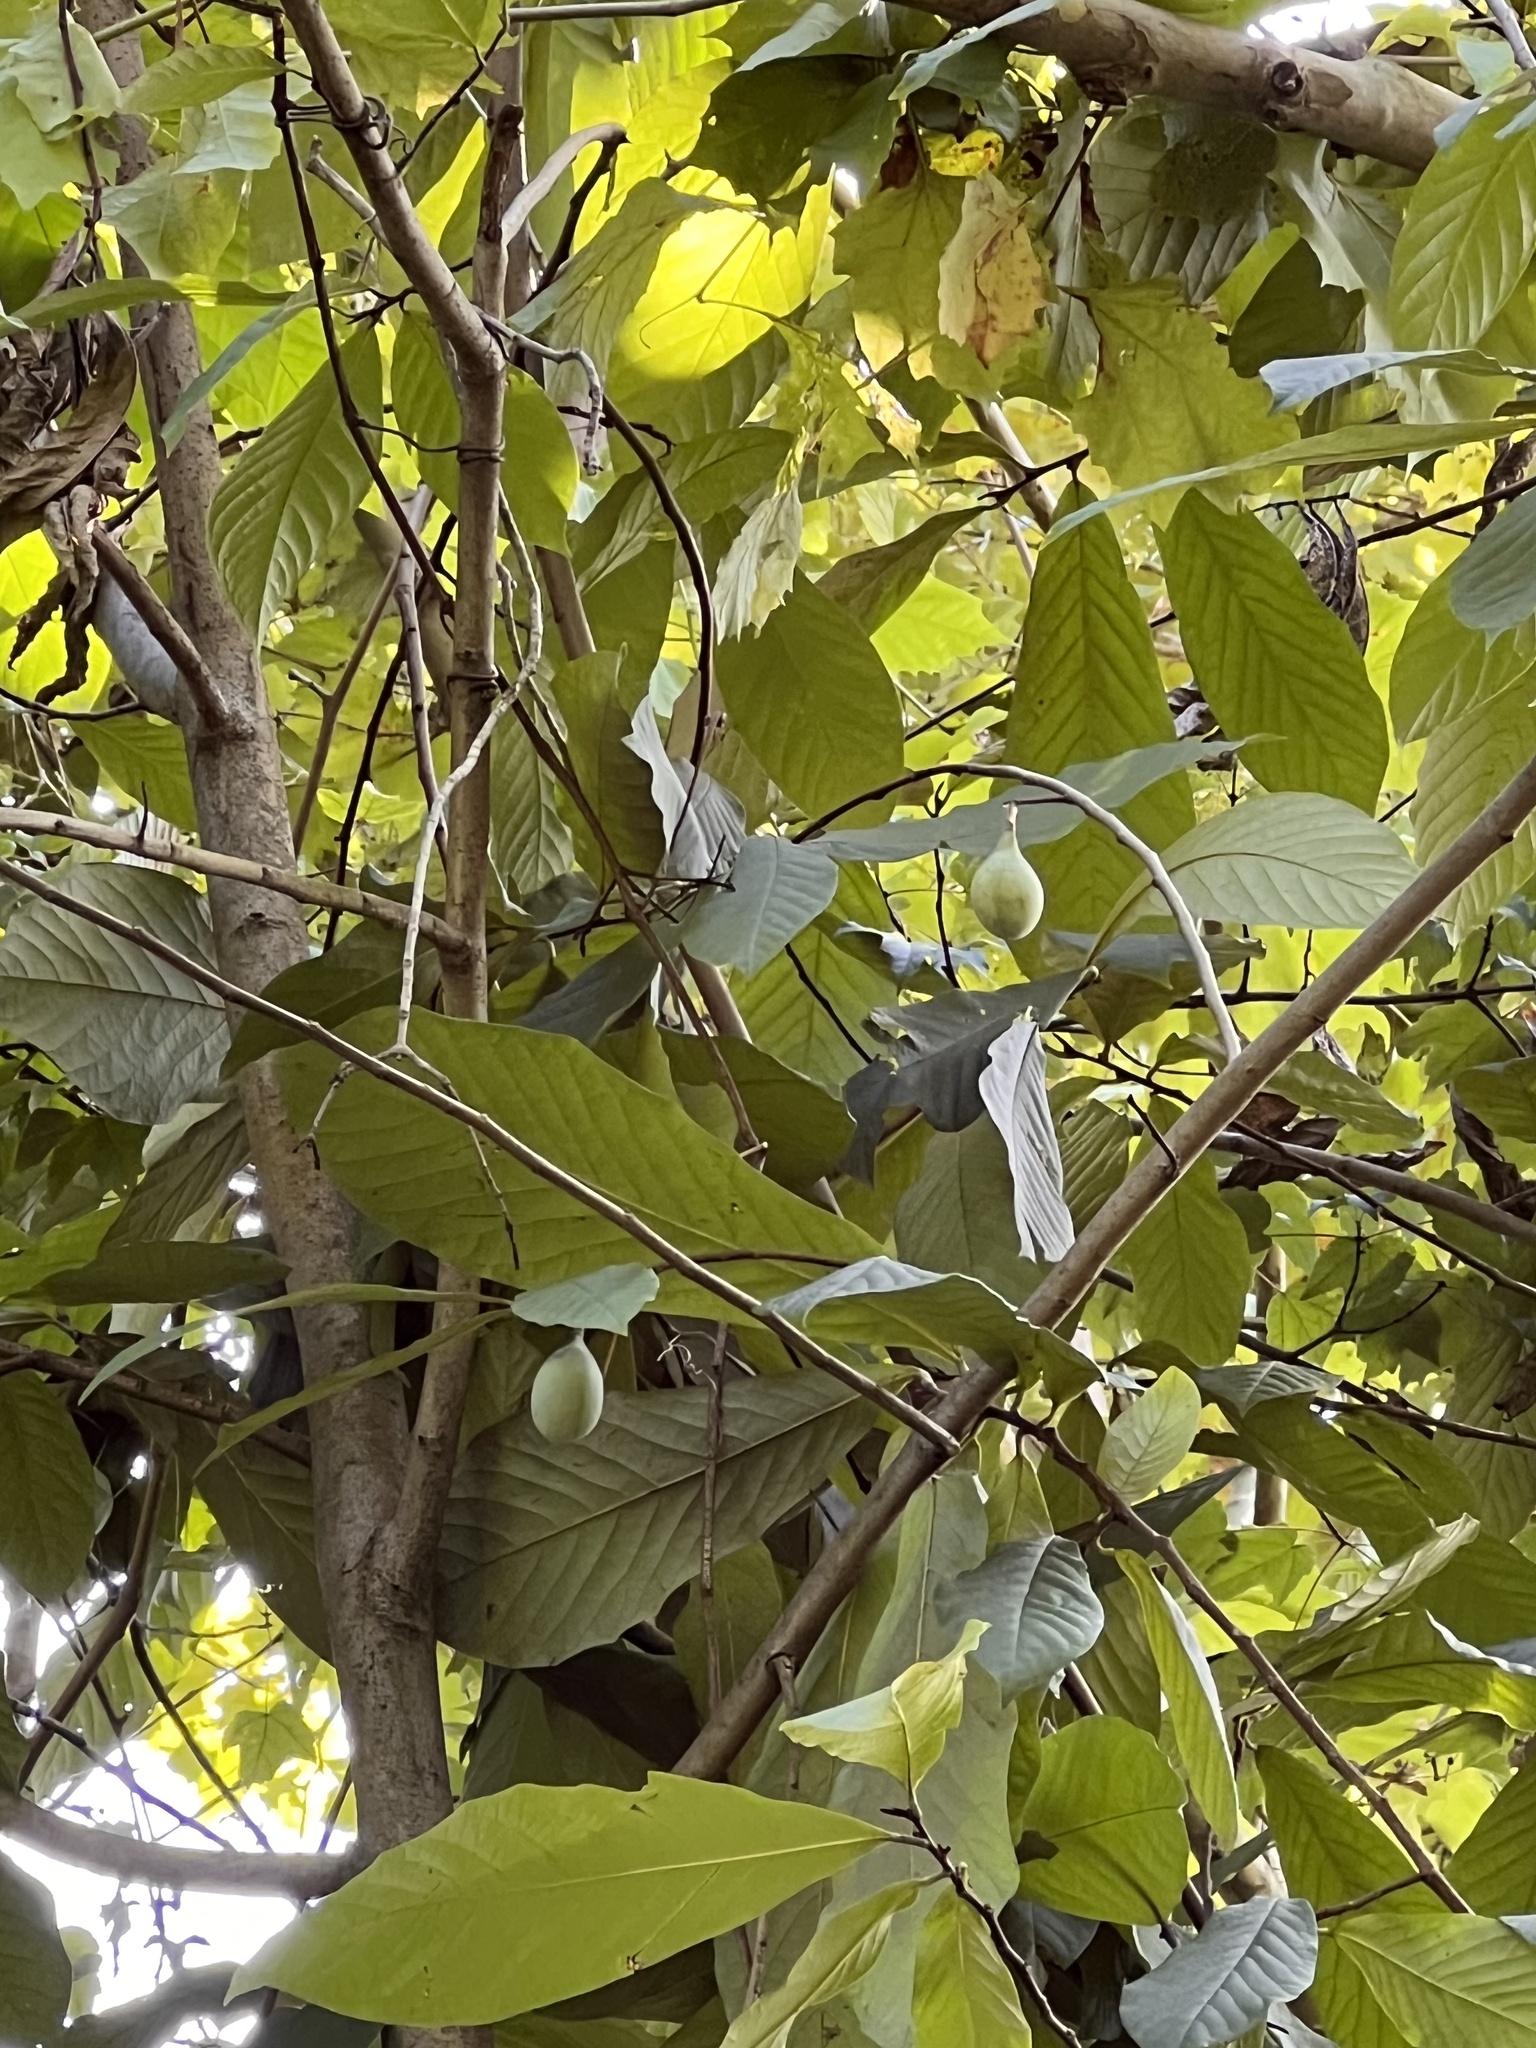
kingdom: Plantae
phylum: Tracheophyta
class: Magnoliopsida
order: Magnoliales
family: Annonaceae
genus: Asimina
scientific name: Asimina triloba
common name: Dog-banana
